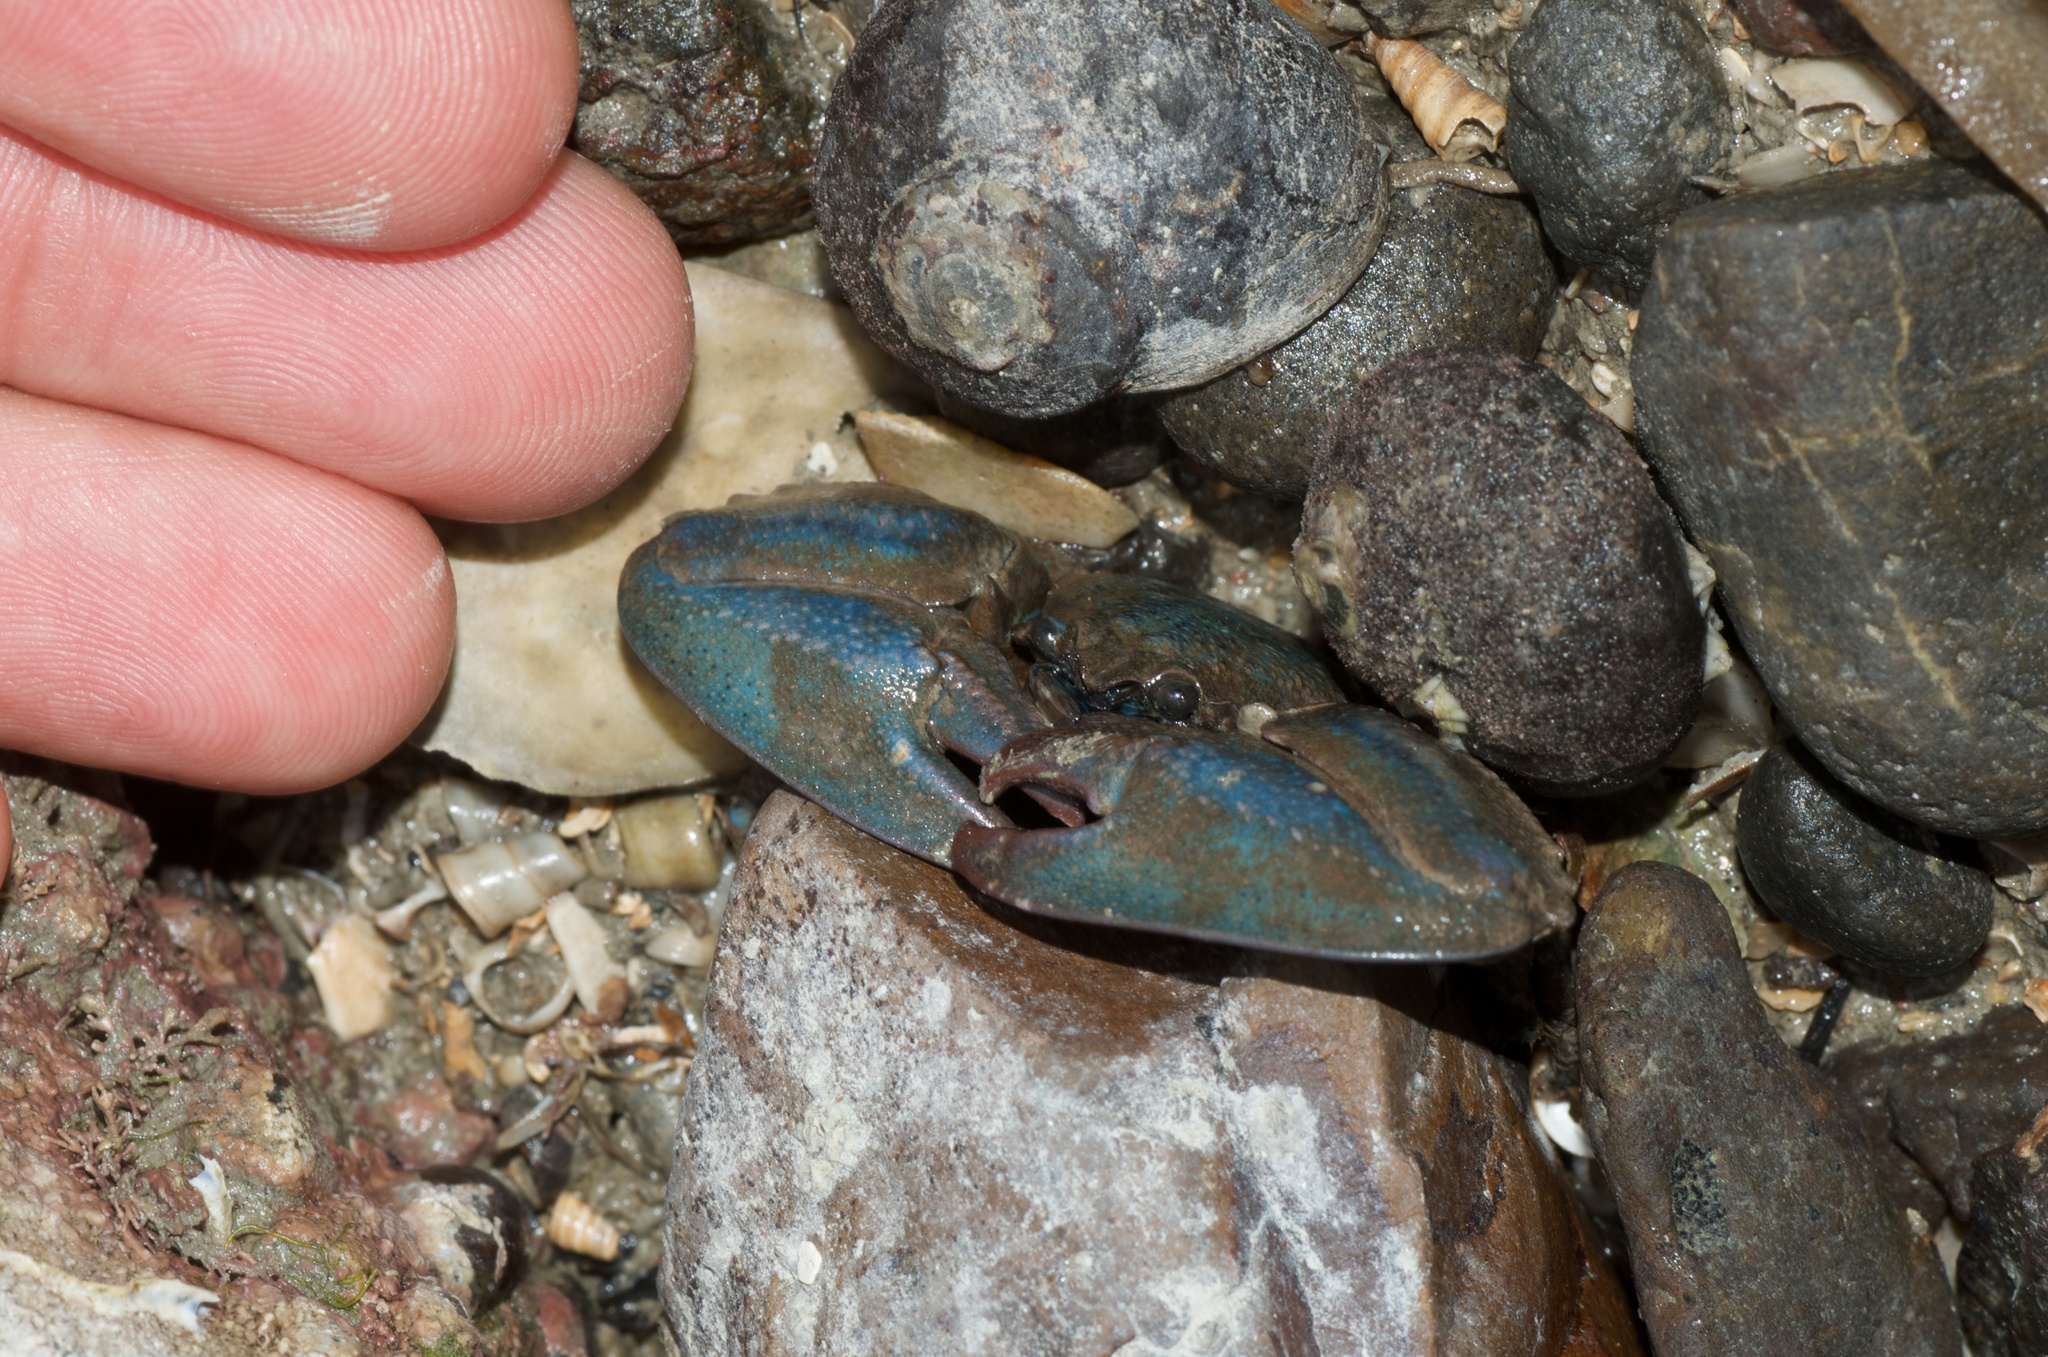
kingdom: Animalia
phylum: Arthropoda
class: Malacostraca
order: Decapoda
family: Porcellanidae
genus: Petrolisthes
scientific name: Petrolisthes elongatus
